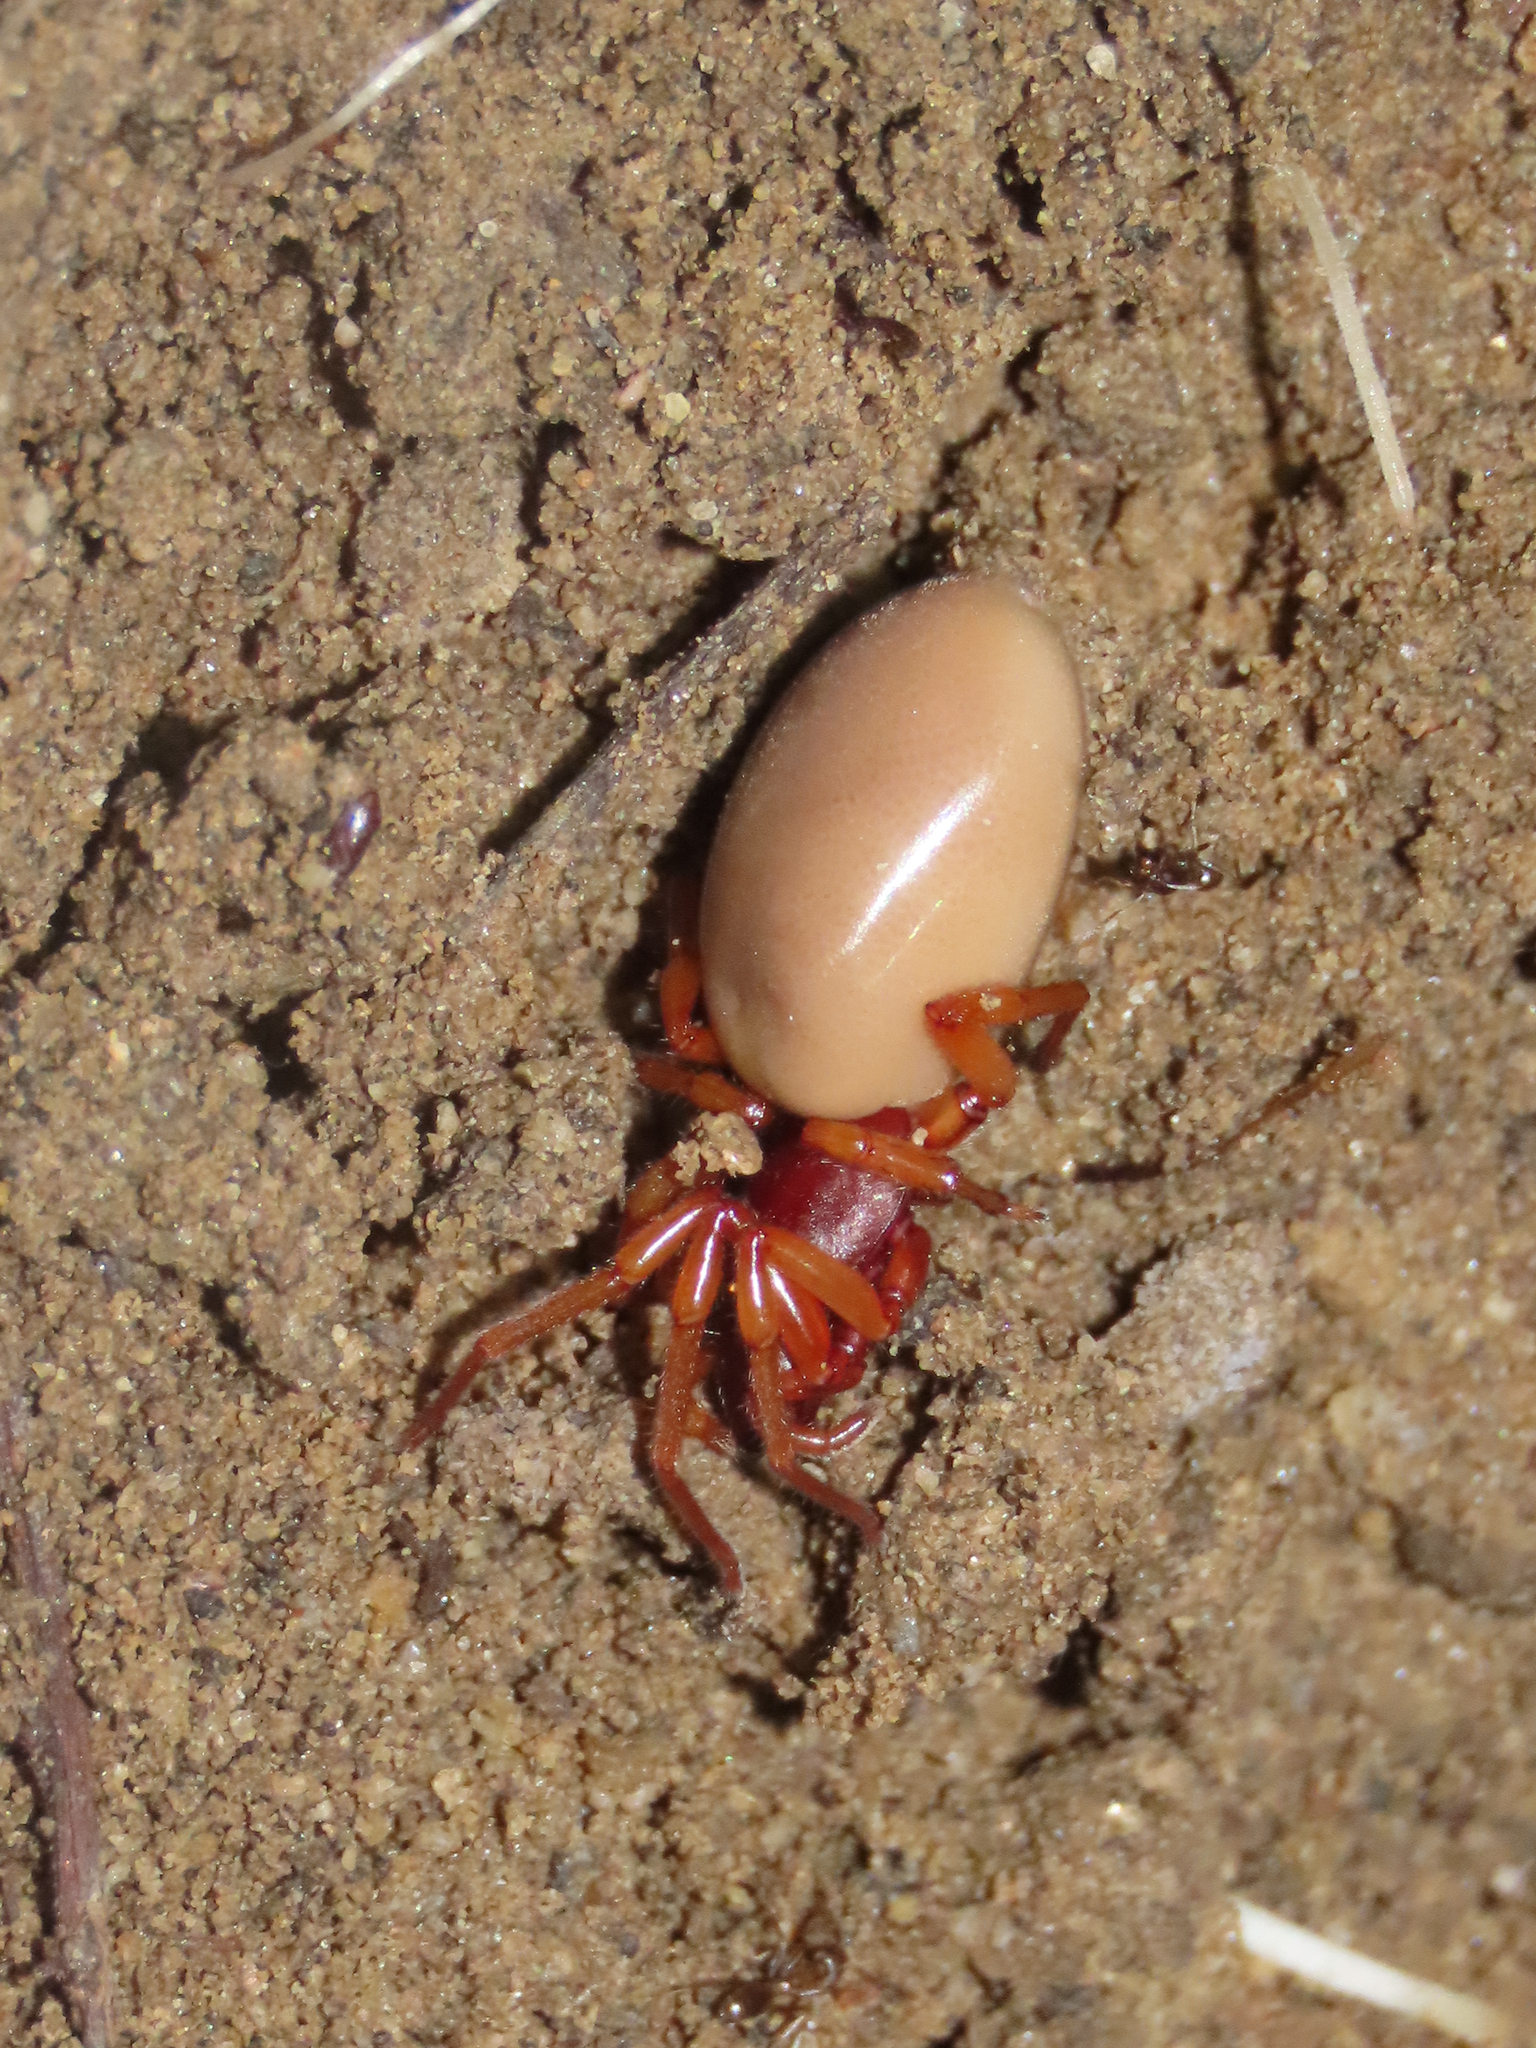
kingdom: Animalia
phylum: Arthropoda
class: Arachnida
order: Araneae
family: Dysderidae
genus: Dysdera
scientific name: Dysdera crocata
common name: Woodlouse spider
